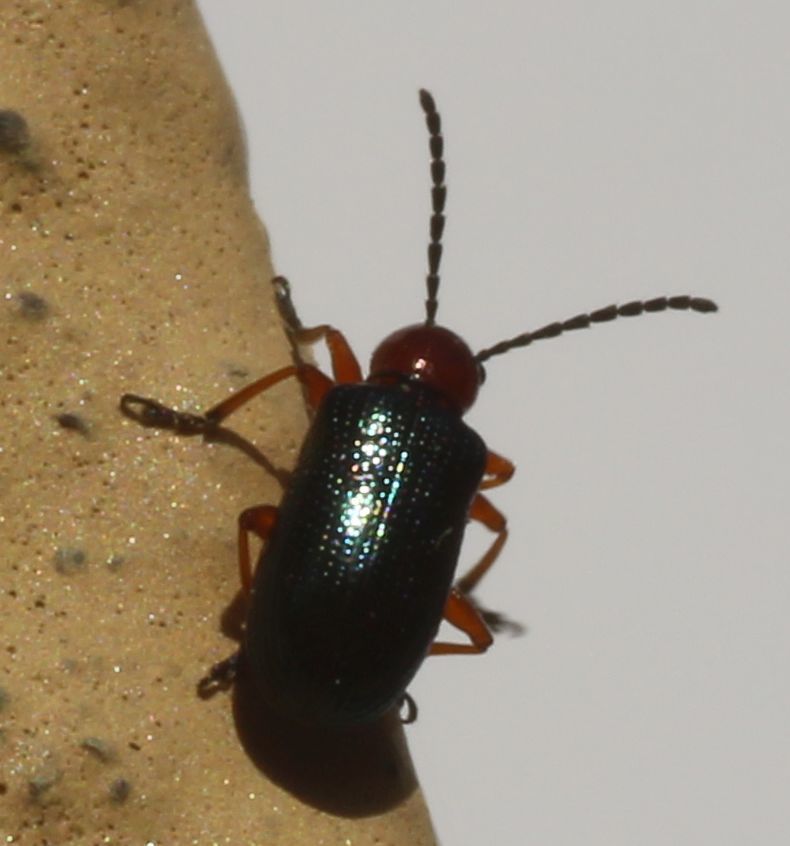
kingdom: Animalia
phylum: Arthropoda
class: Insecta
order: Coleoptera
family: Chrysomelidae
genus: Oulema
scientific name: Oulema
